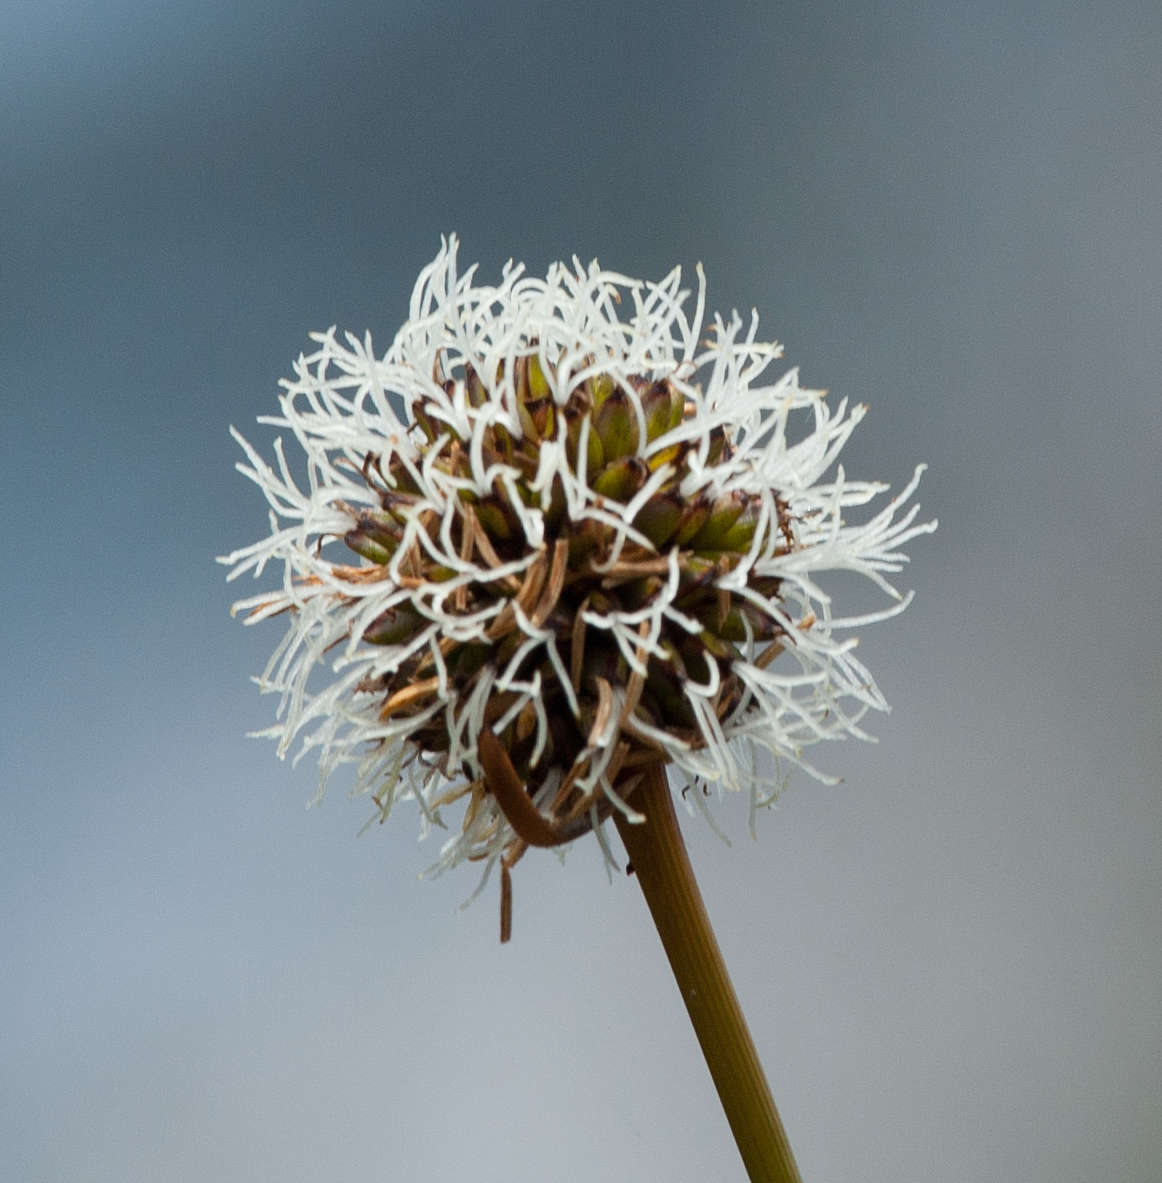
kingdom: Plantae
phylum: Tracheophyta
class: Liliopsida
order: Poales
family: Cyperaceae
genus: Gymnoschoenus
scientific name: Gymnoschoenus sphaerocephalus
